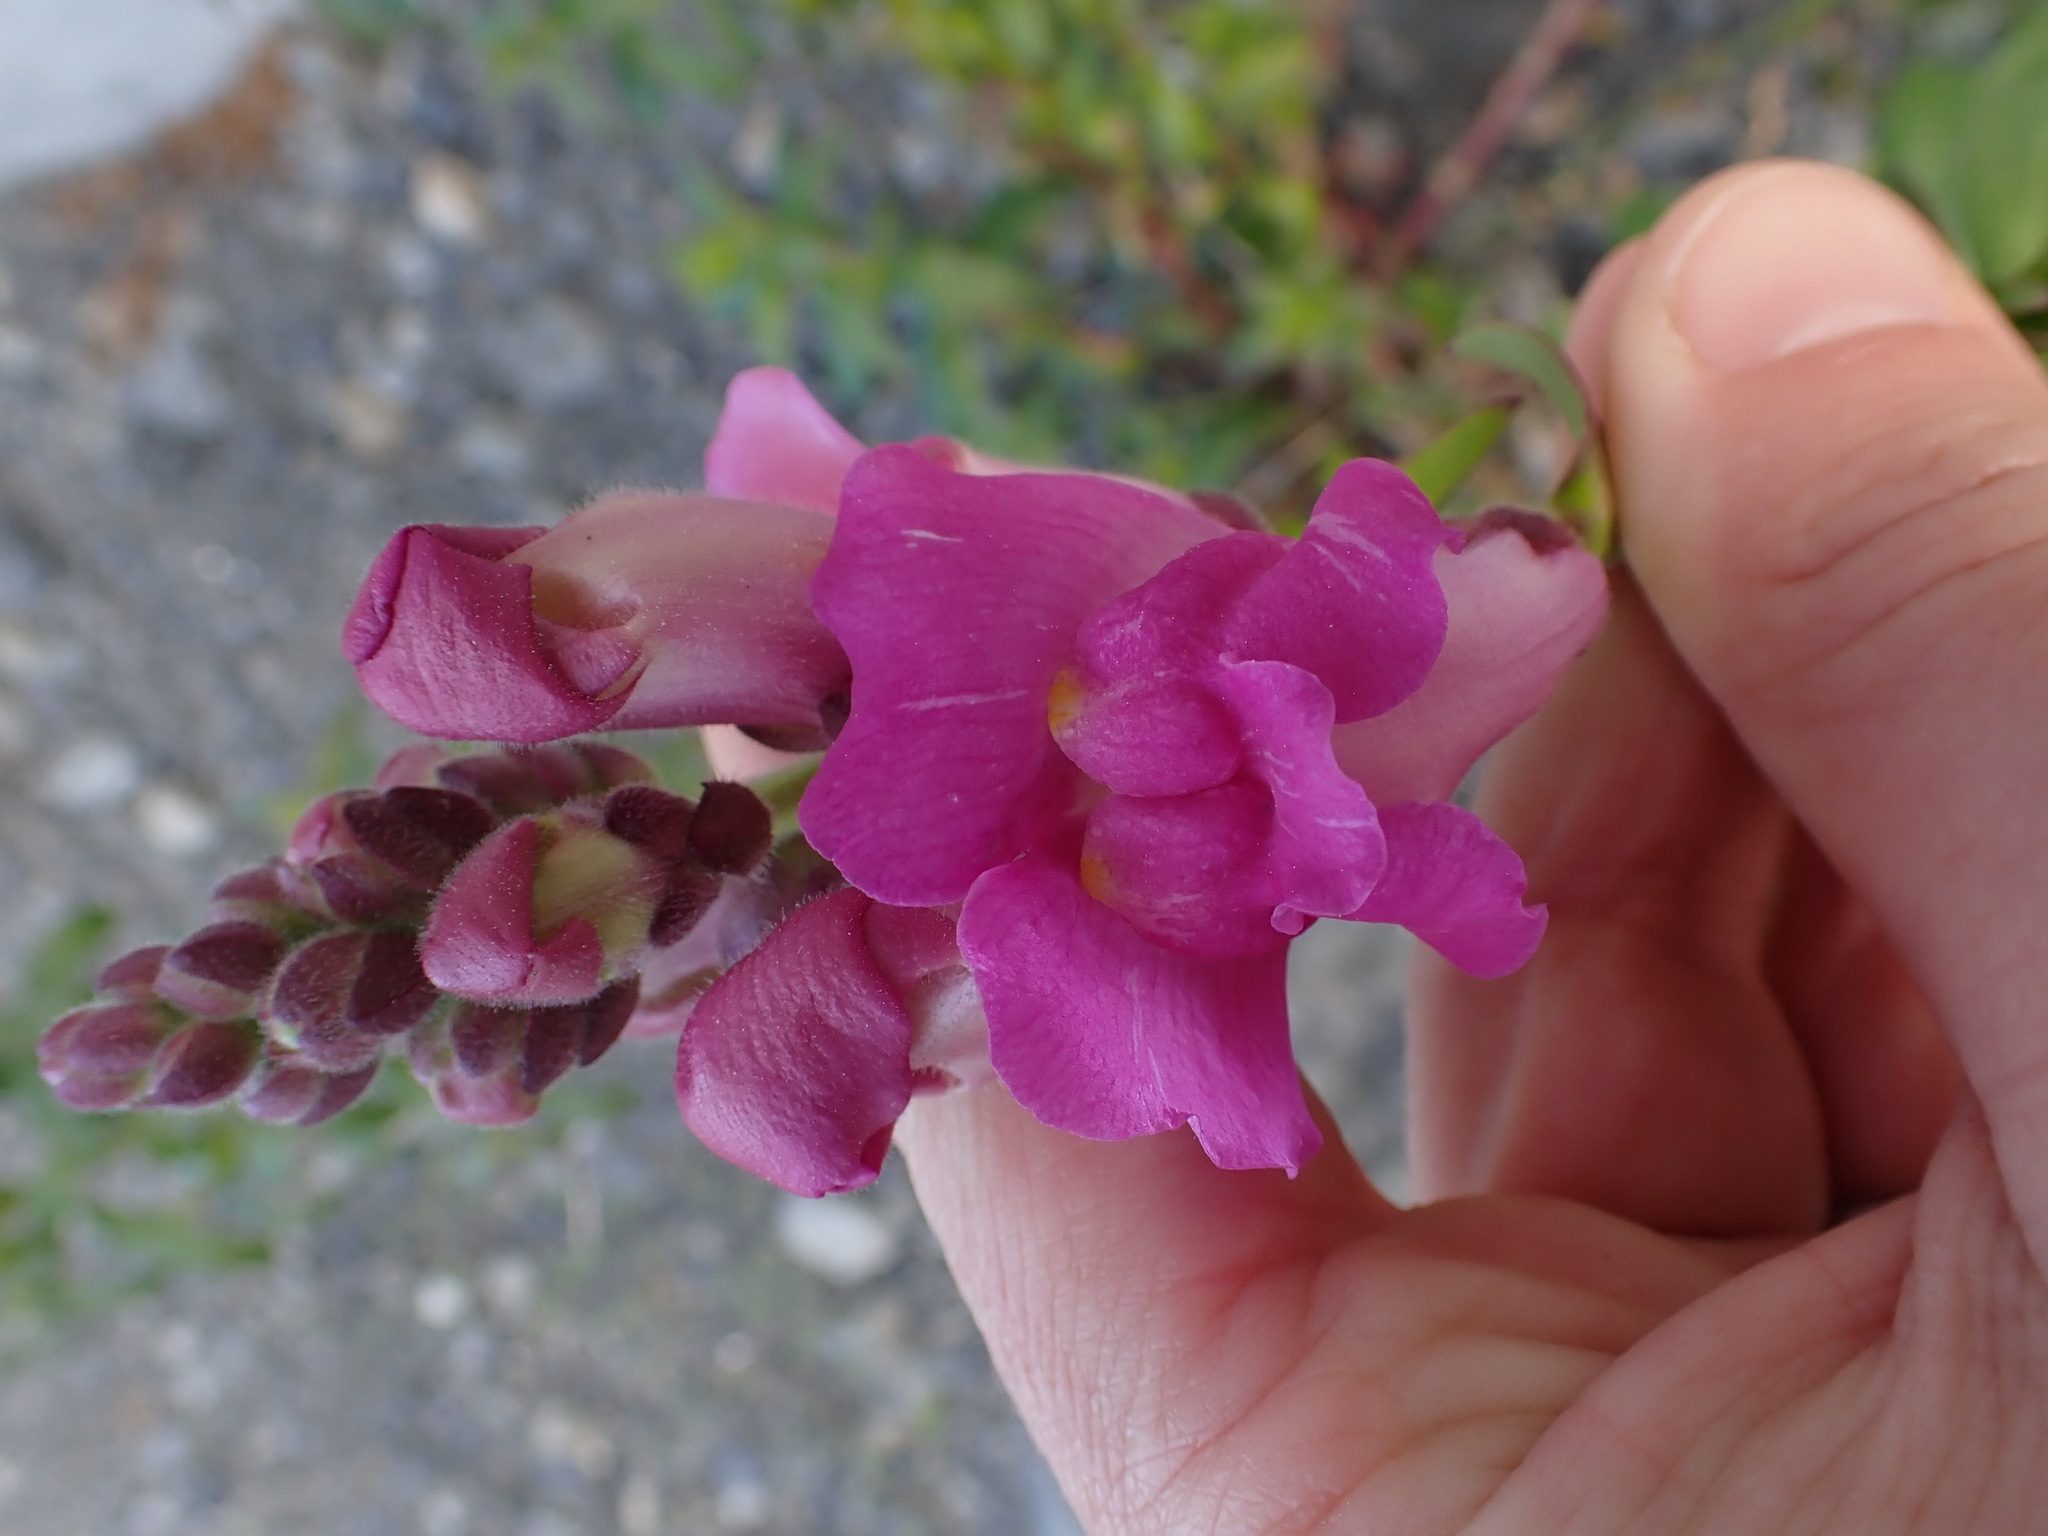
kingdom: Plantae
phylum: Tracheophyta
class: Magnoliopsida
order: Lamiales
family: Plantaginaceae
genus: Antirrhinum
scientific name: Antirrhinum majus
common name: Snapdragon
